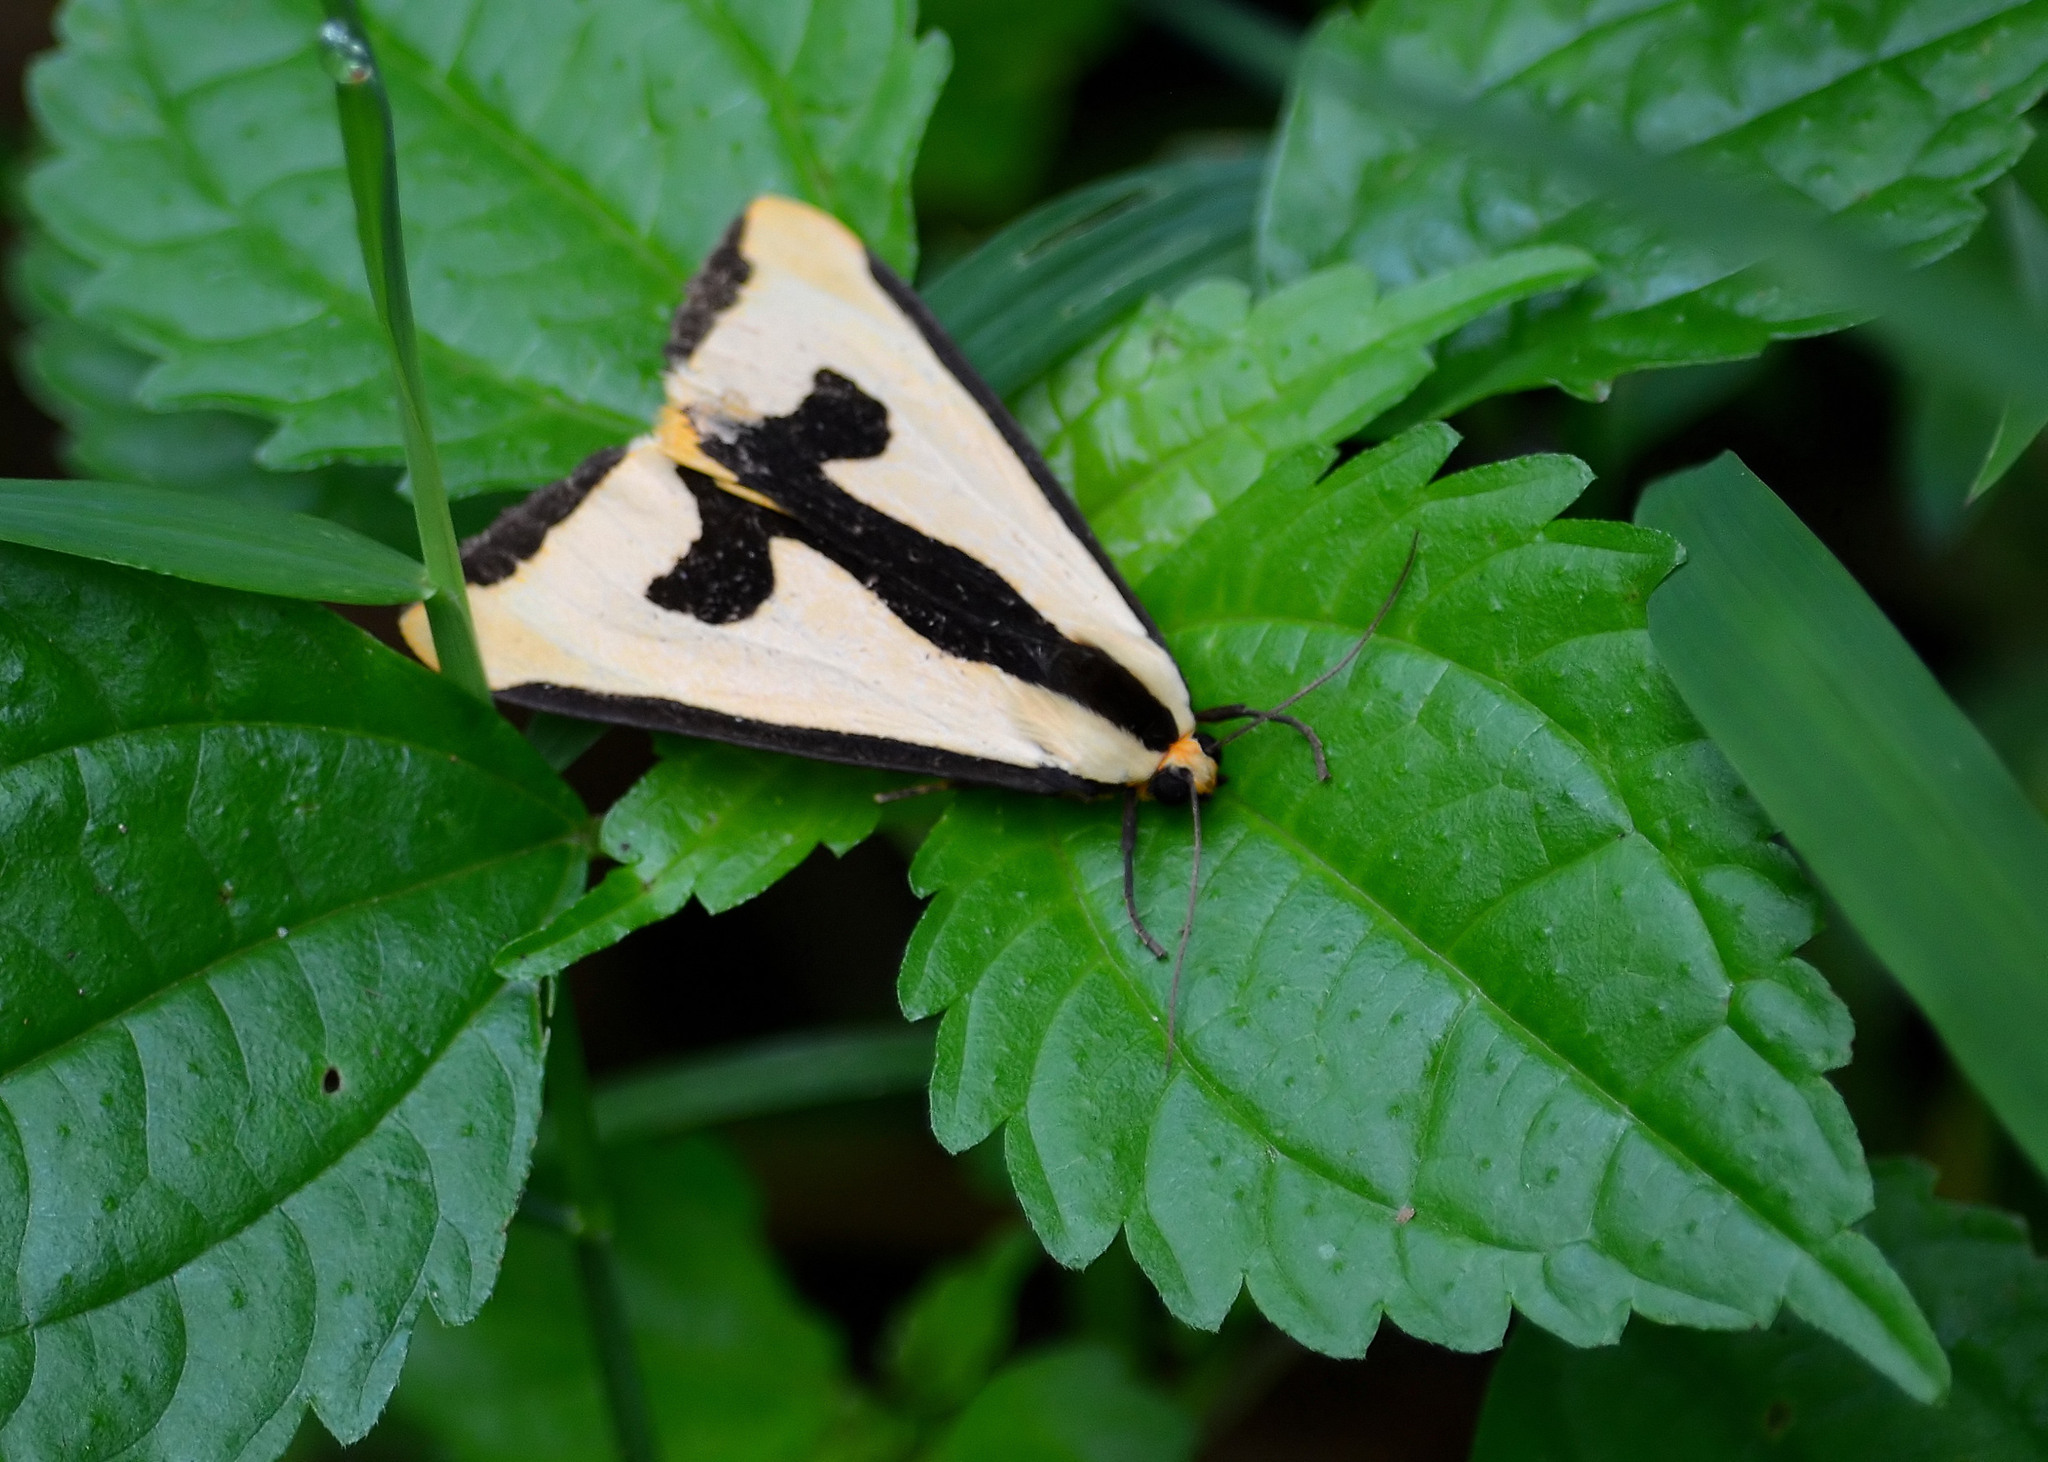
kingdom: Animalia
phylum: Arthropoda
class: Insecta
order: Lepidoptera
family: Erebidae
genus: Haploa
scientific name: Haploa clymene
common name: Clymene moth
